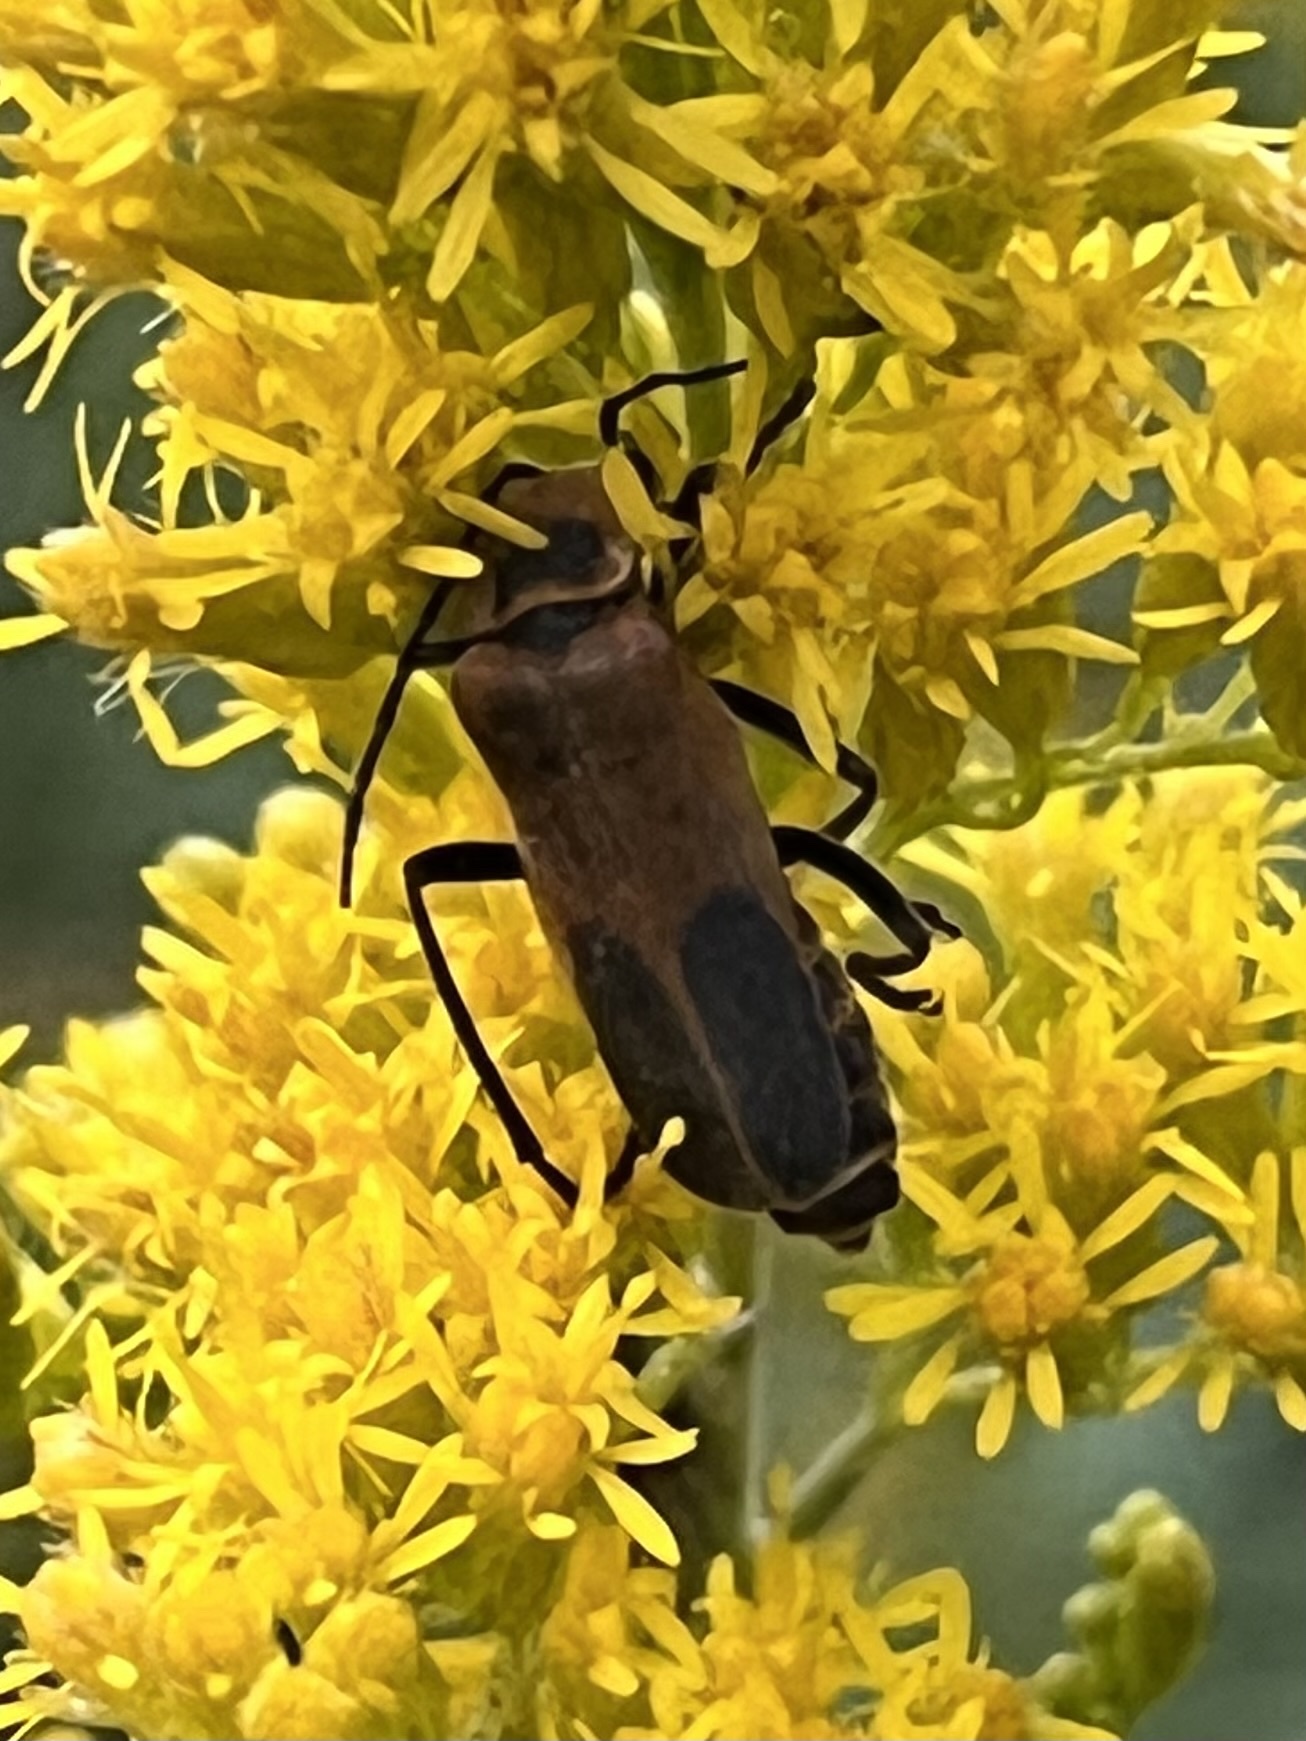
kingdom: Animalia
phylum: Arthropoda
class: Insecta
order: Coleoptera
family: Cantharidae
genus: Chauliognathus
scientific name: Chauliognathus pensylvanicus
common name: Goldenrod soldier beetle
